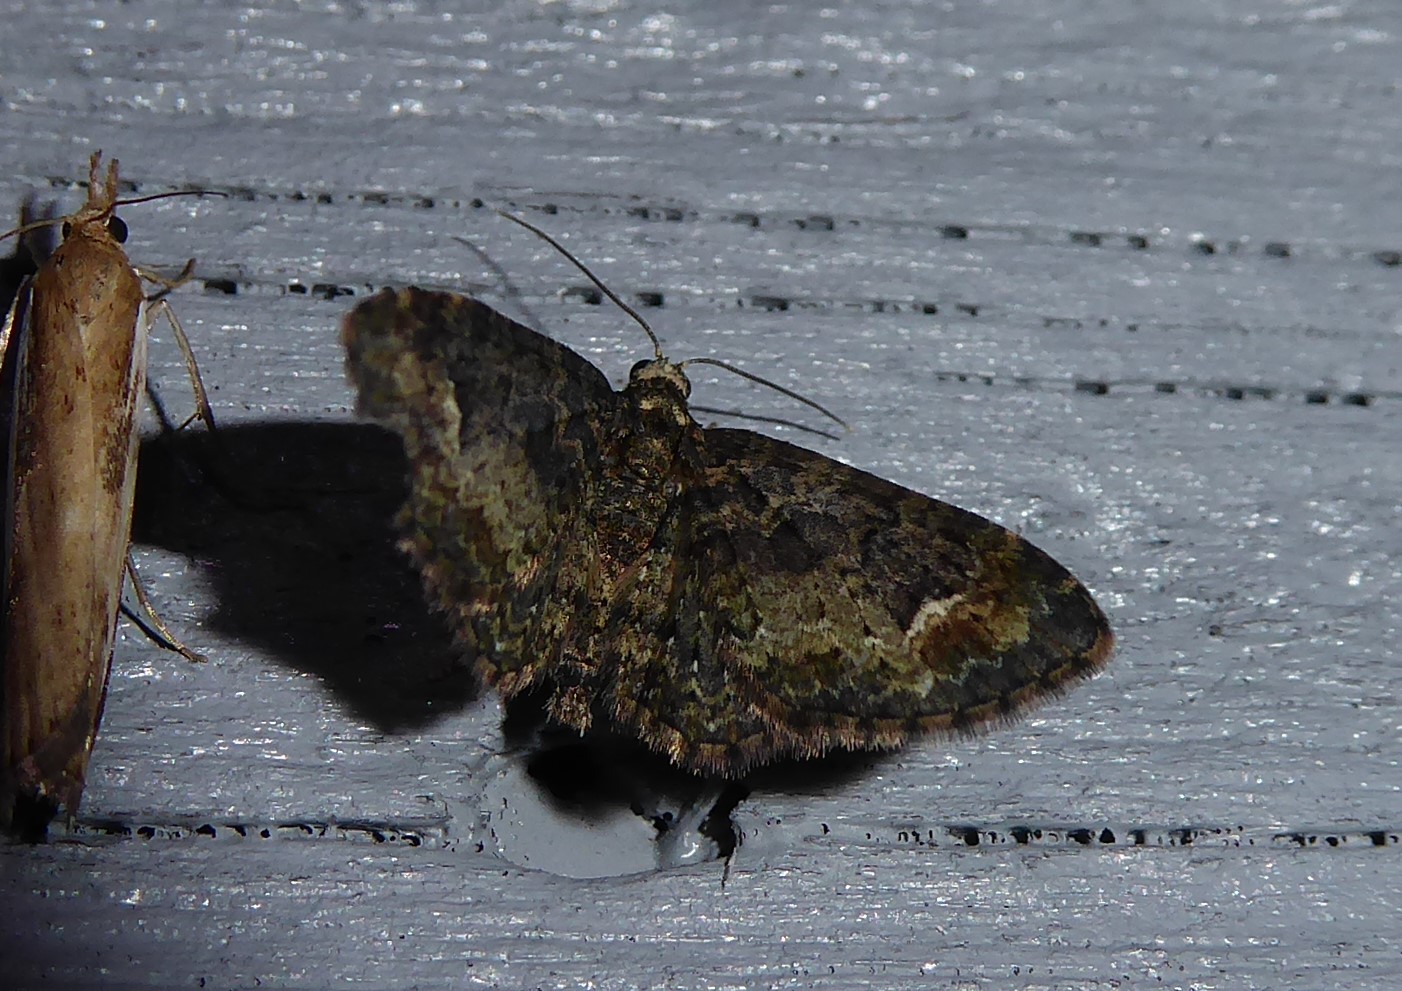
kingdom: Animalia
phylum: Arthropoda
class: Insecta
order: Lepidoptera
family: Geometridae
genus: Pasiphilodes
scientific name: Pasiphilodes testulata
